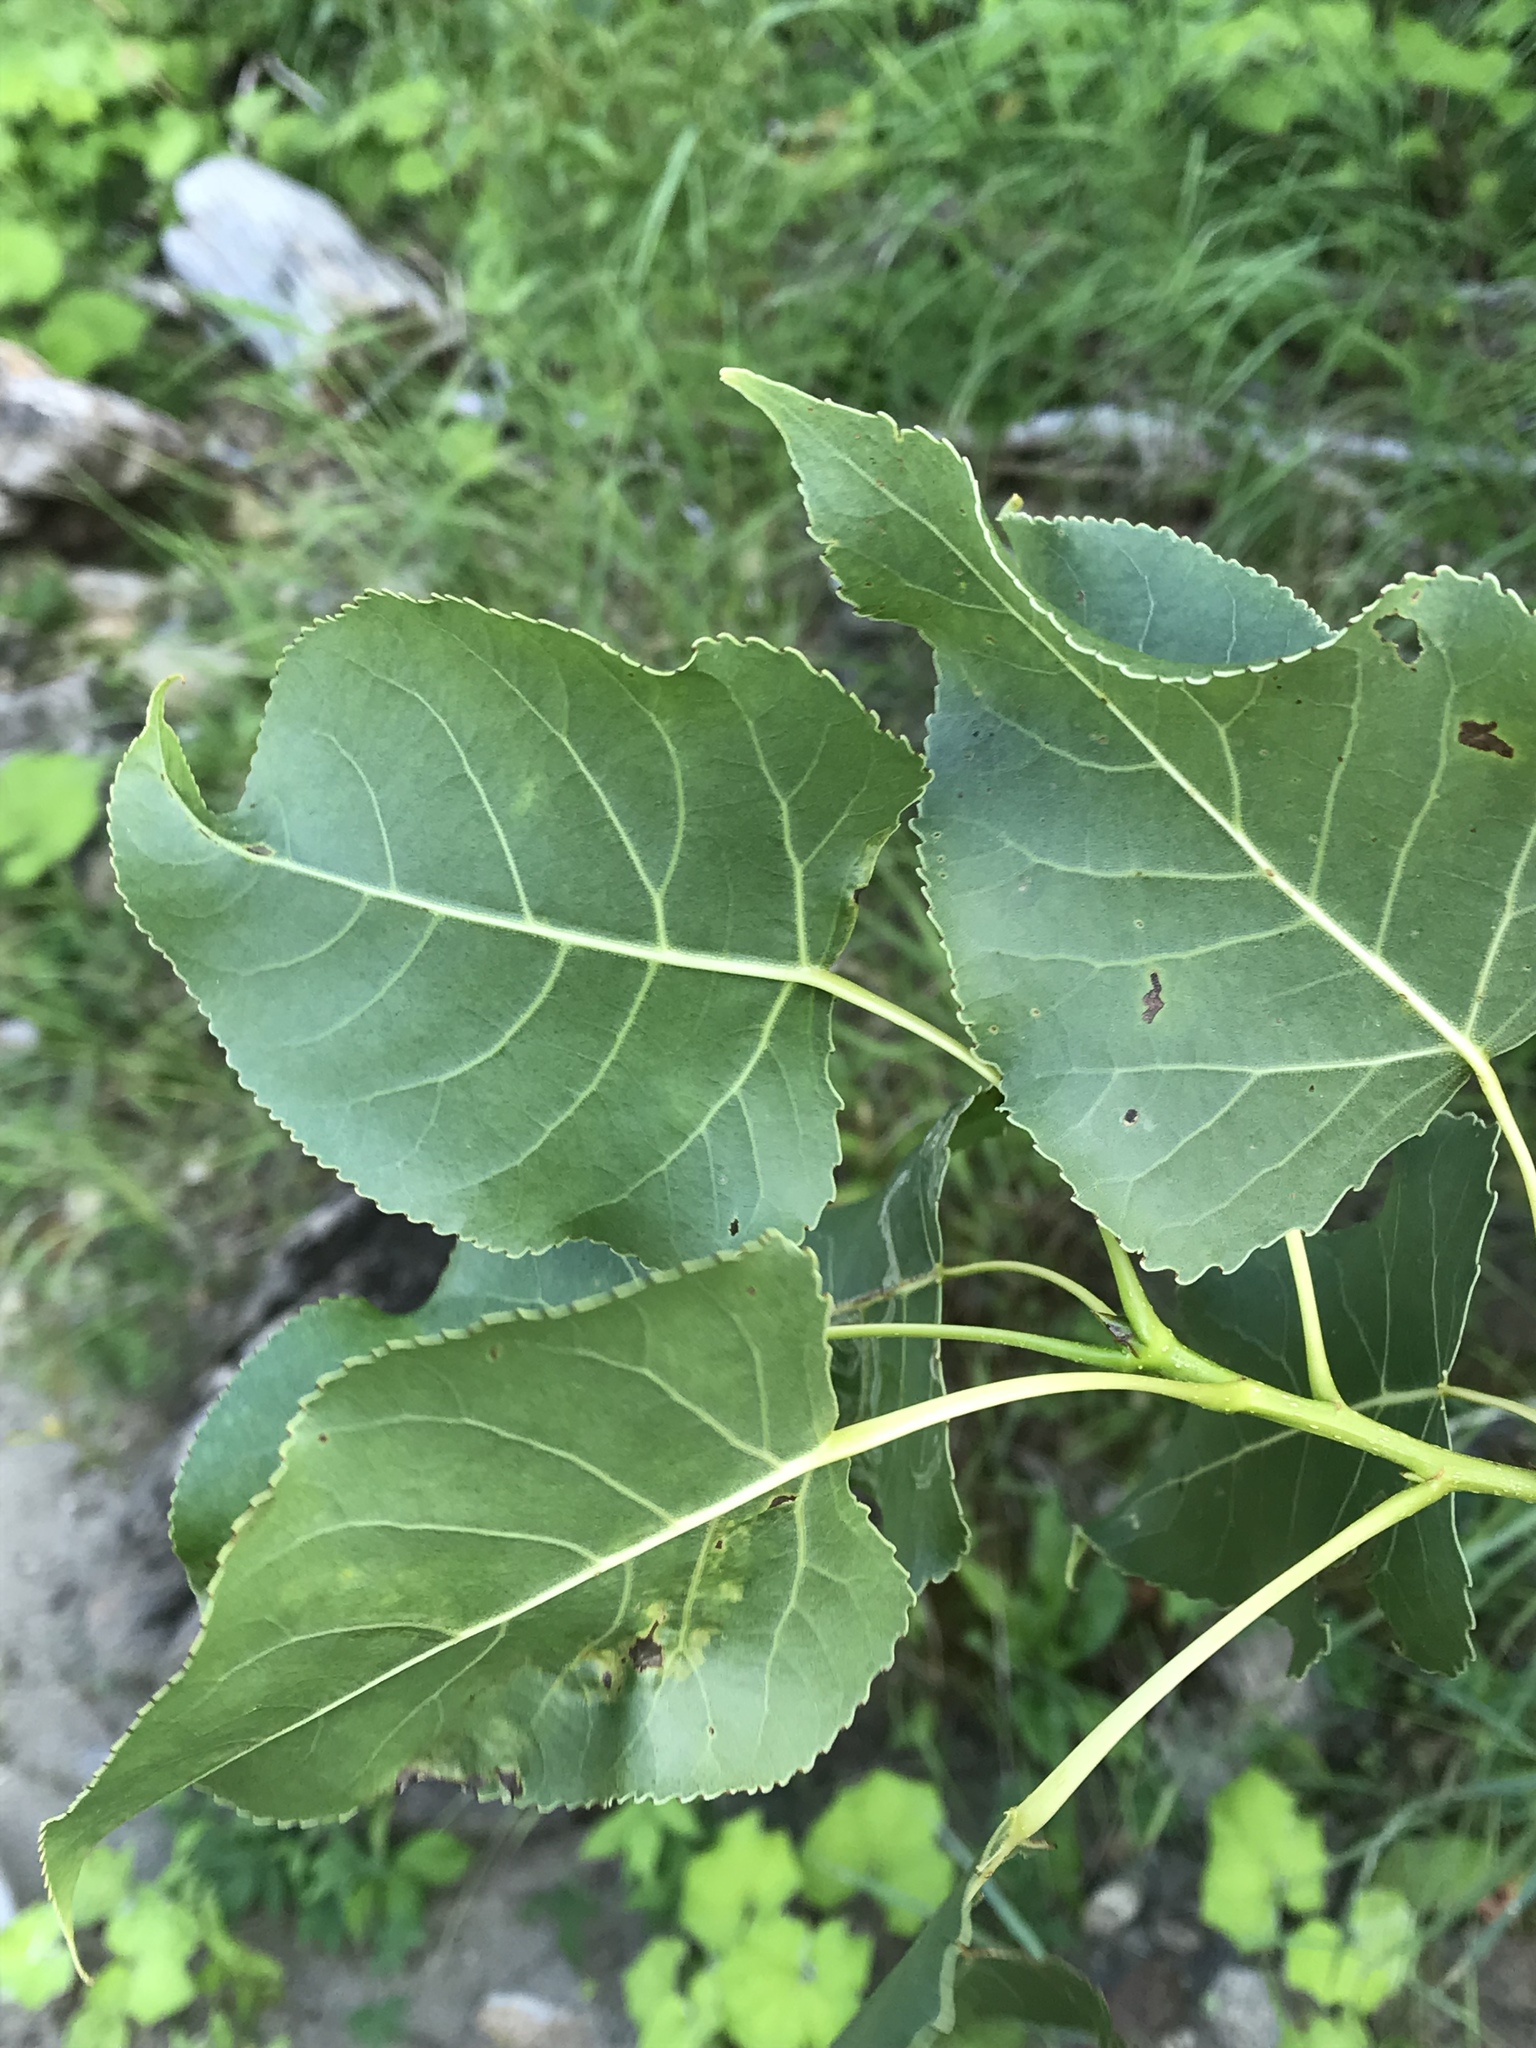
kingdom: Plantae
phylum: Tracheophyta
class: Magnoliopsida
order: Malpighiales
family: Salicaceae
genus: Populus
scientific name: Populus deltoides
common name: Eastern cottonwood
